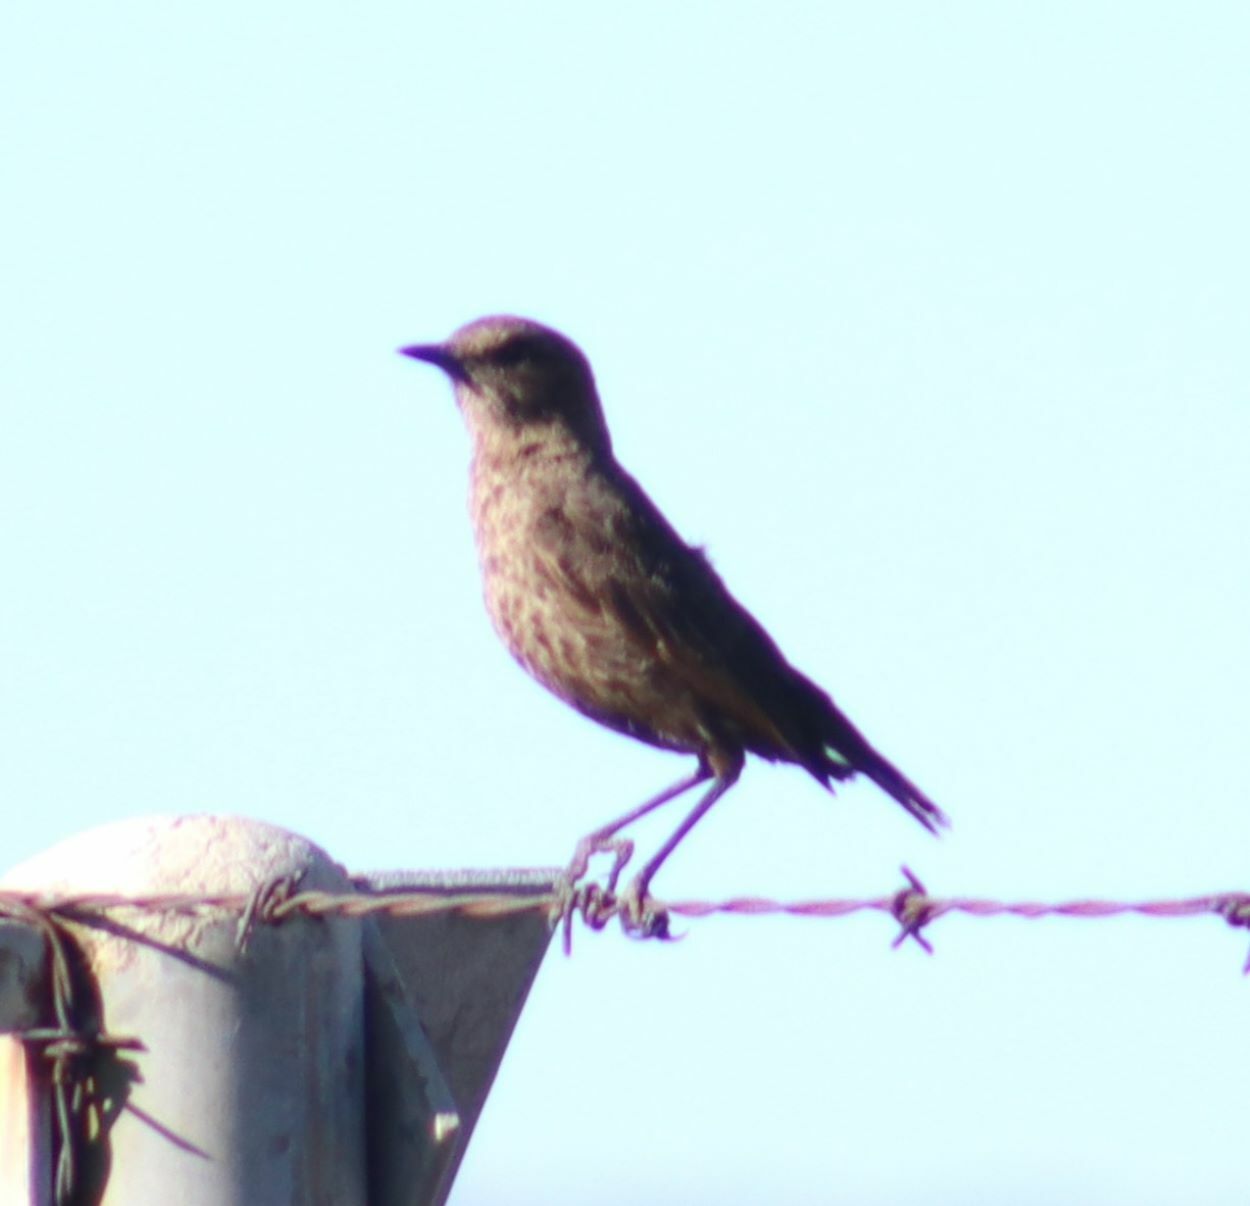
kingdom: Animalia
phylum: Chordata
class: Aves
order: Passeriformes
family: Muscicapidae
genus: Myrmecocichla
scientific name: Myrmecocichla formicivora
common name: Ant-eating chat
